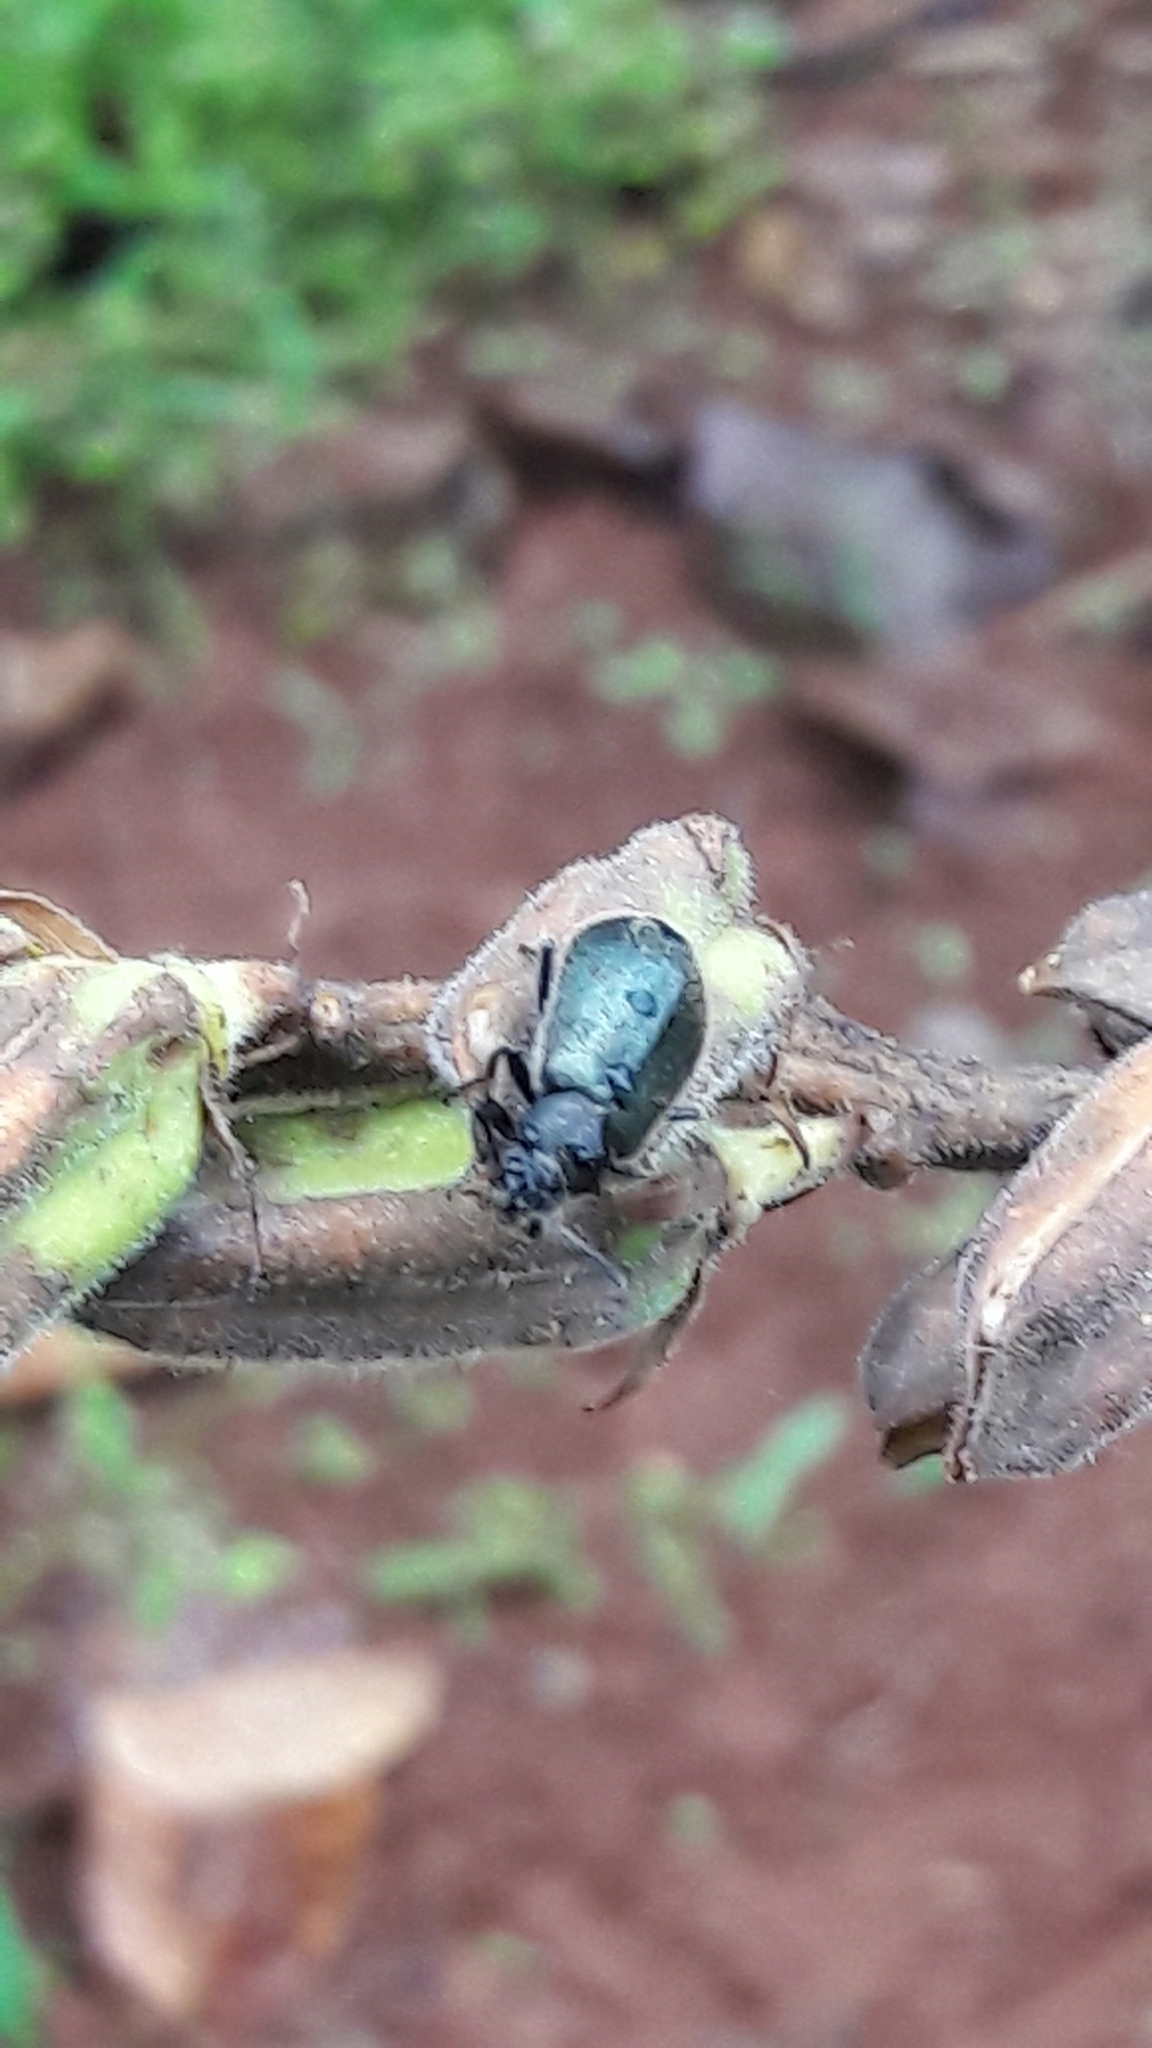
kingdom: Animalia
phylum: Arthropoda
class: Insecta
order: Coleoptera
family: Tenebrionidae
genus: Lagria
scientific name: Lagria villosa
